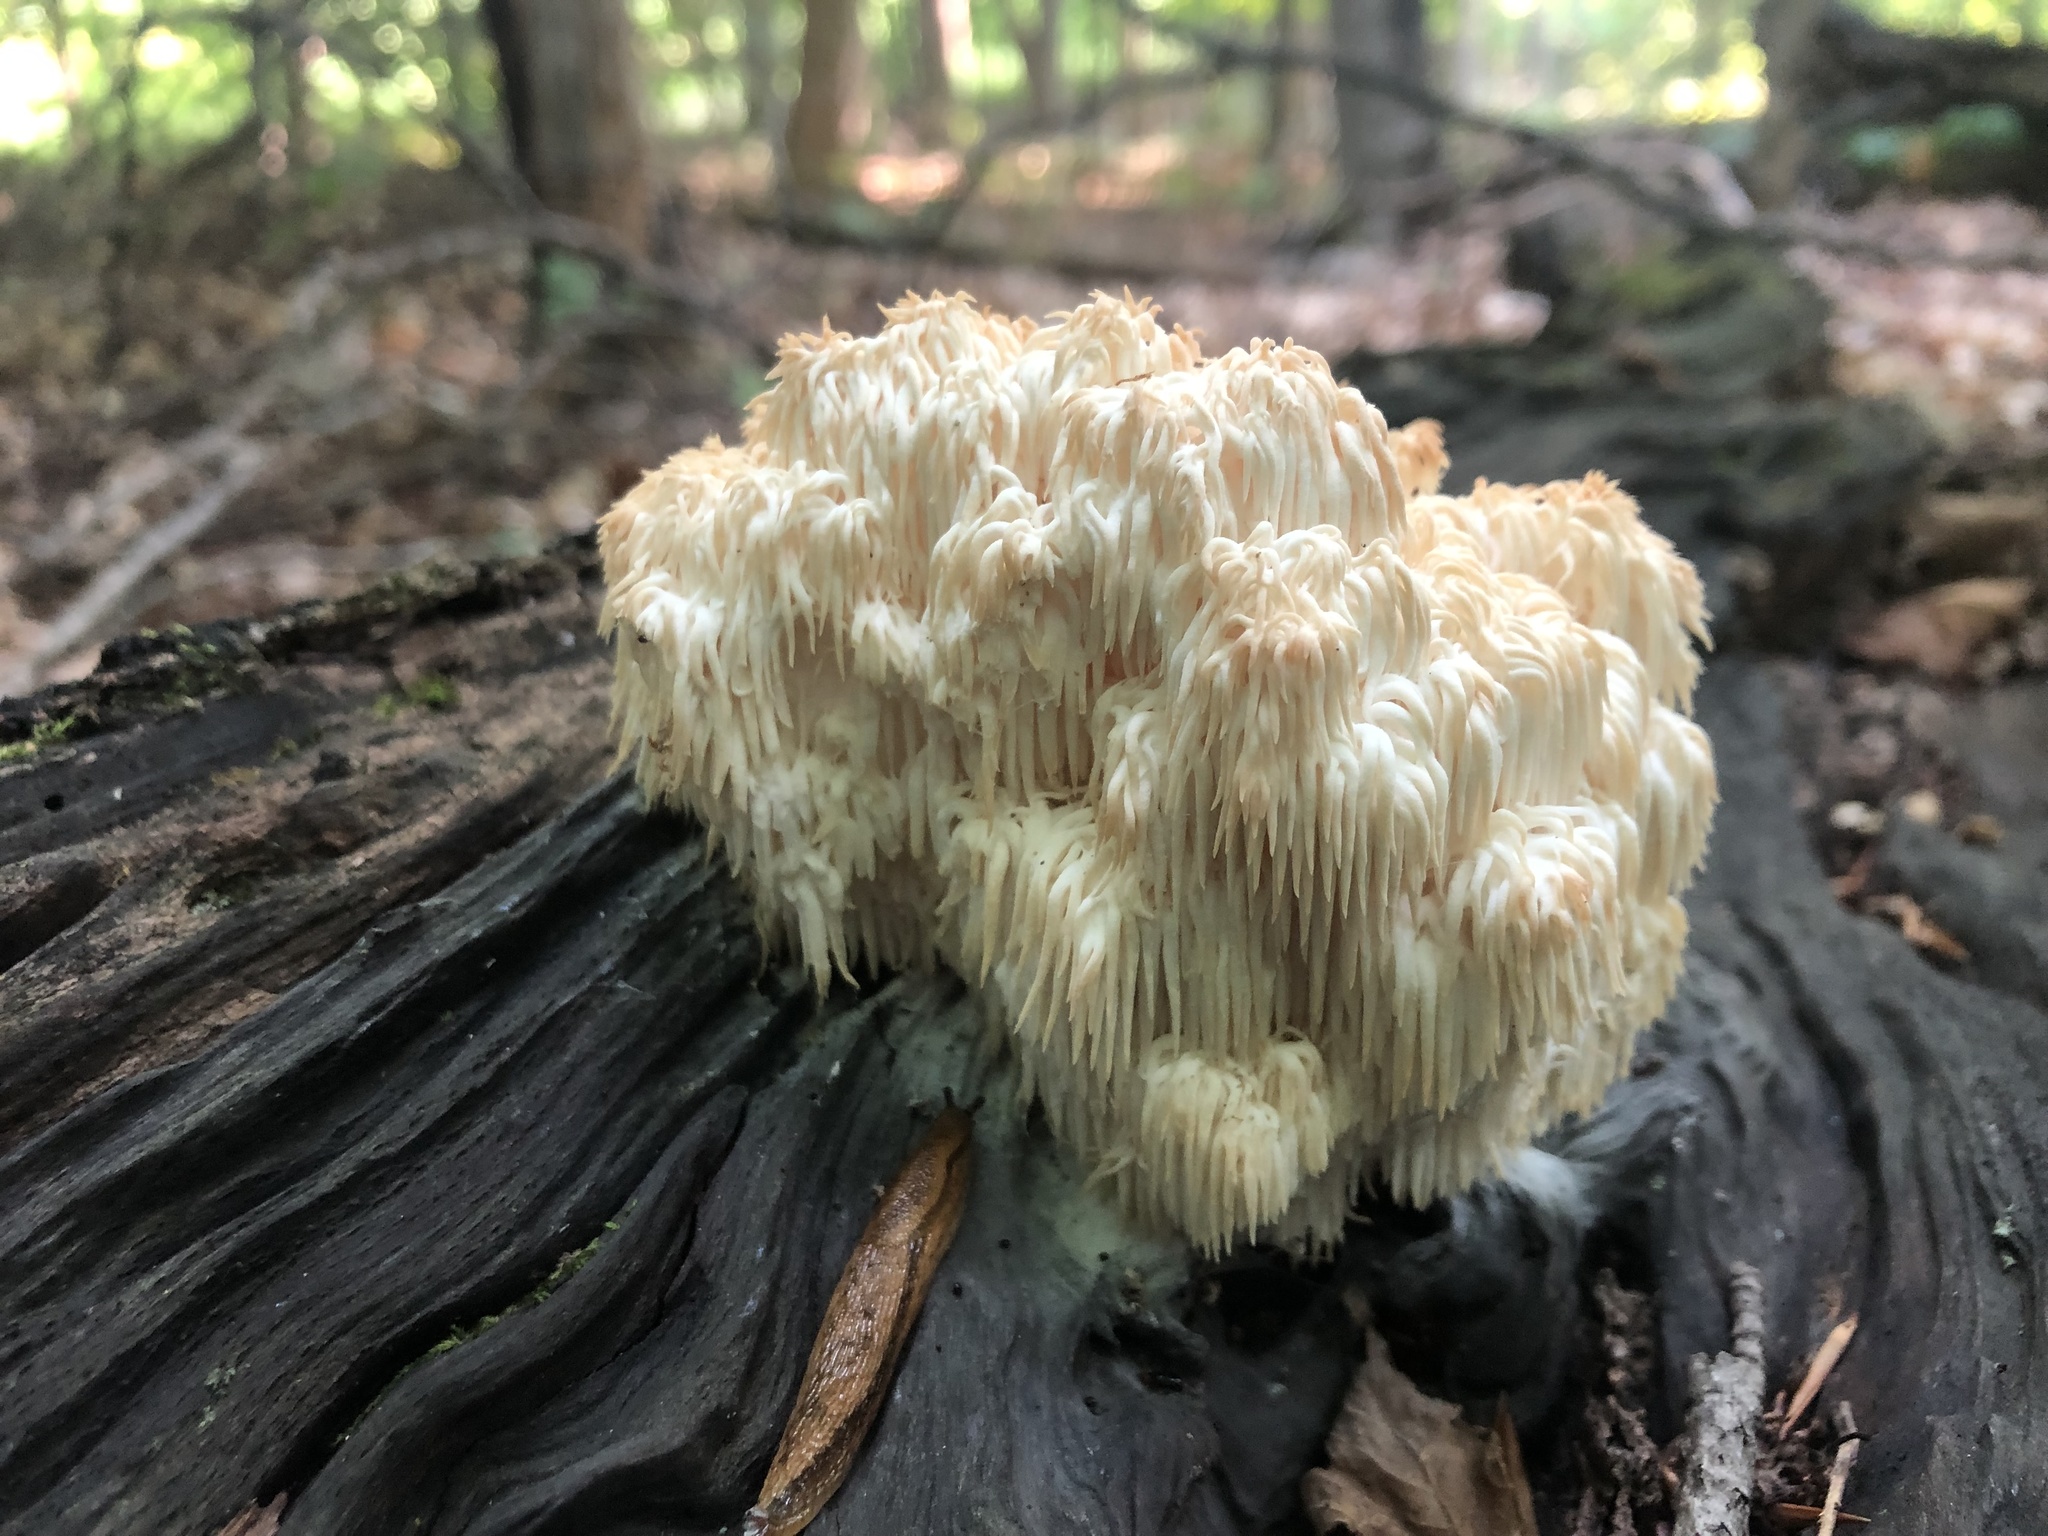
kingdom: Fungi
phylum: Basidiomycota
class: Agaricomycetes
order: Russulales
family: Hericiaceae
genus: Hericium
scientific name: Hericium americanum
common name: Bear's head tooth
